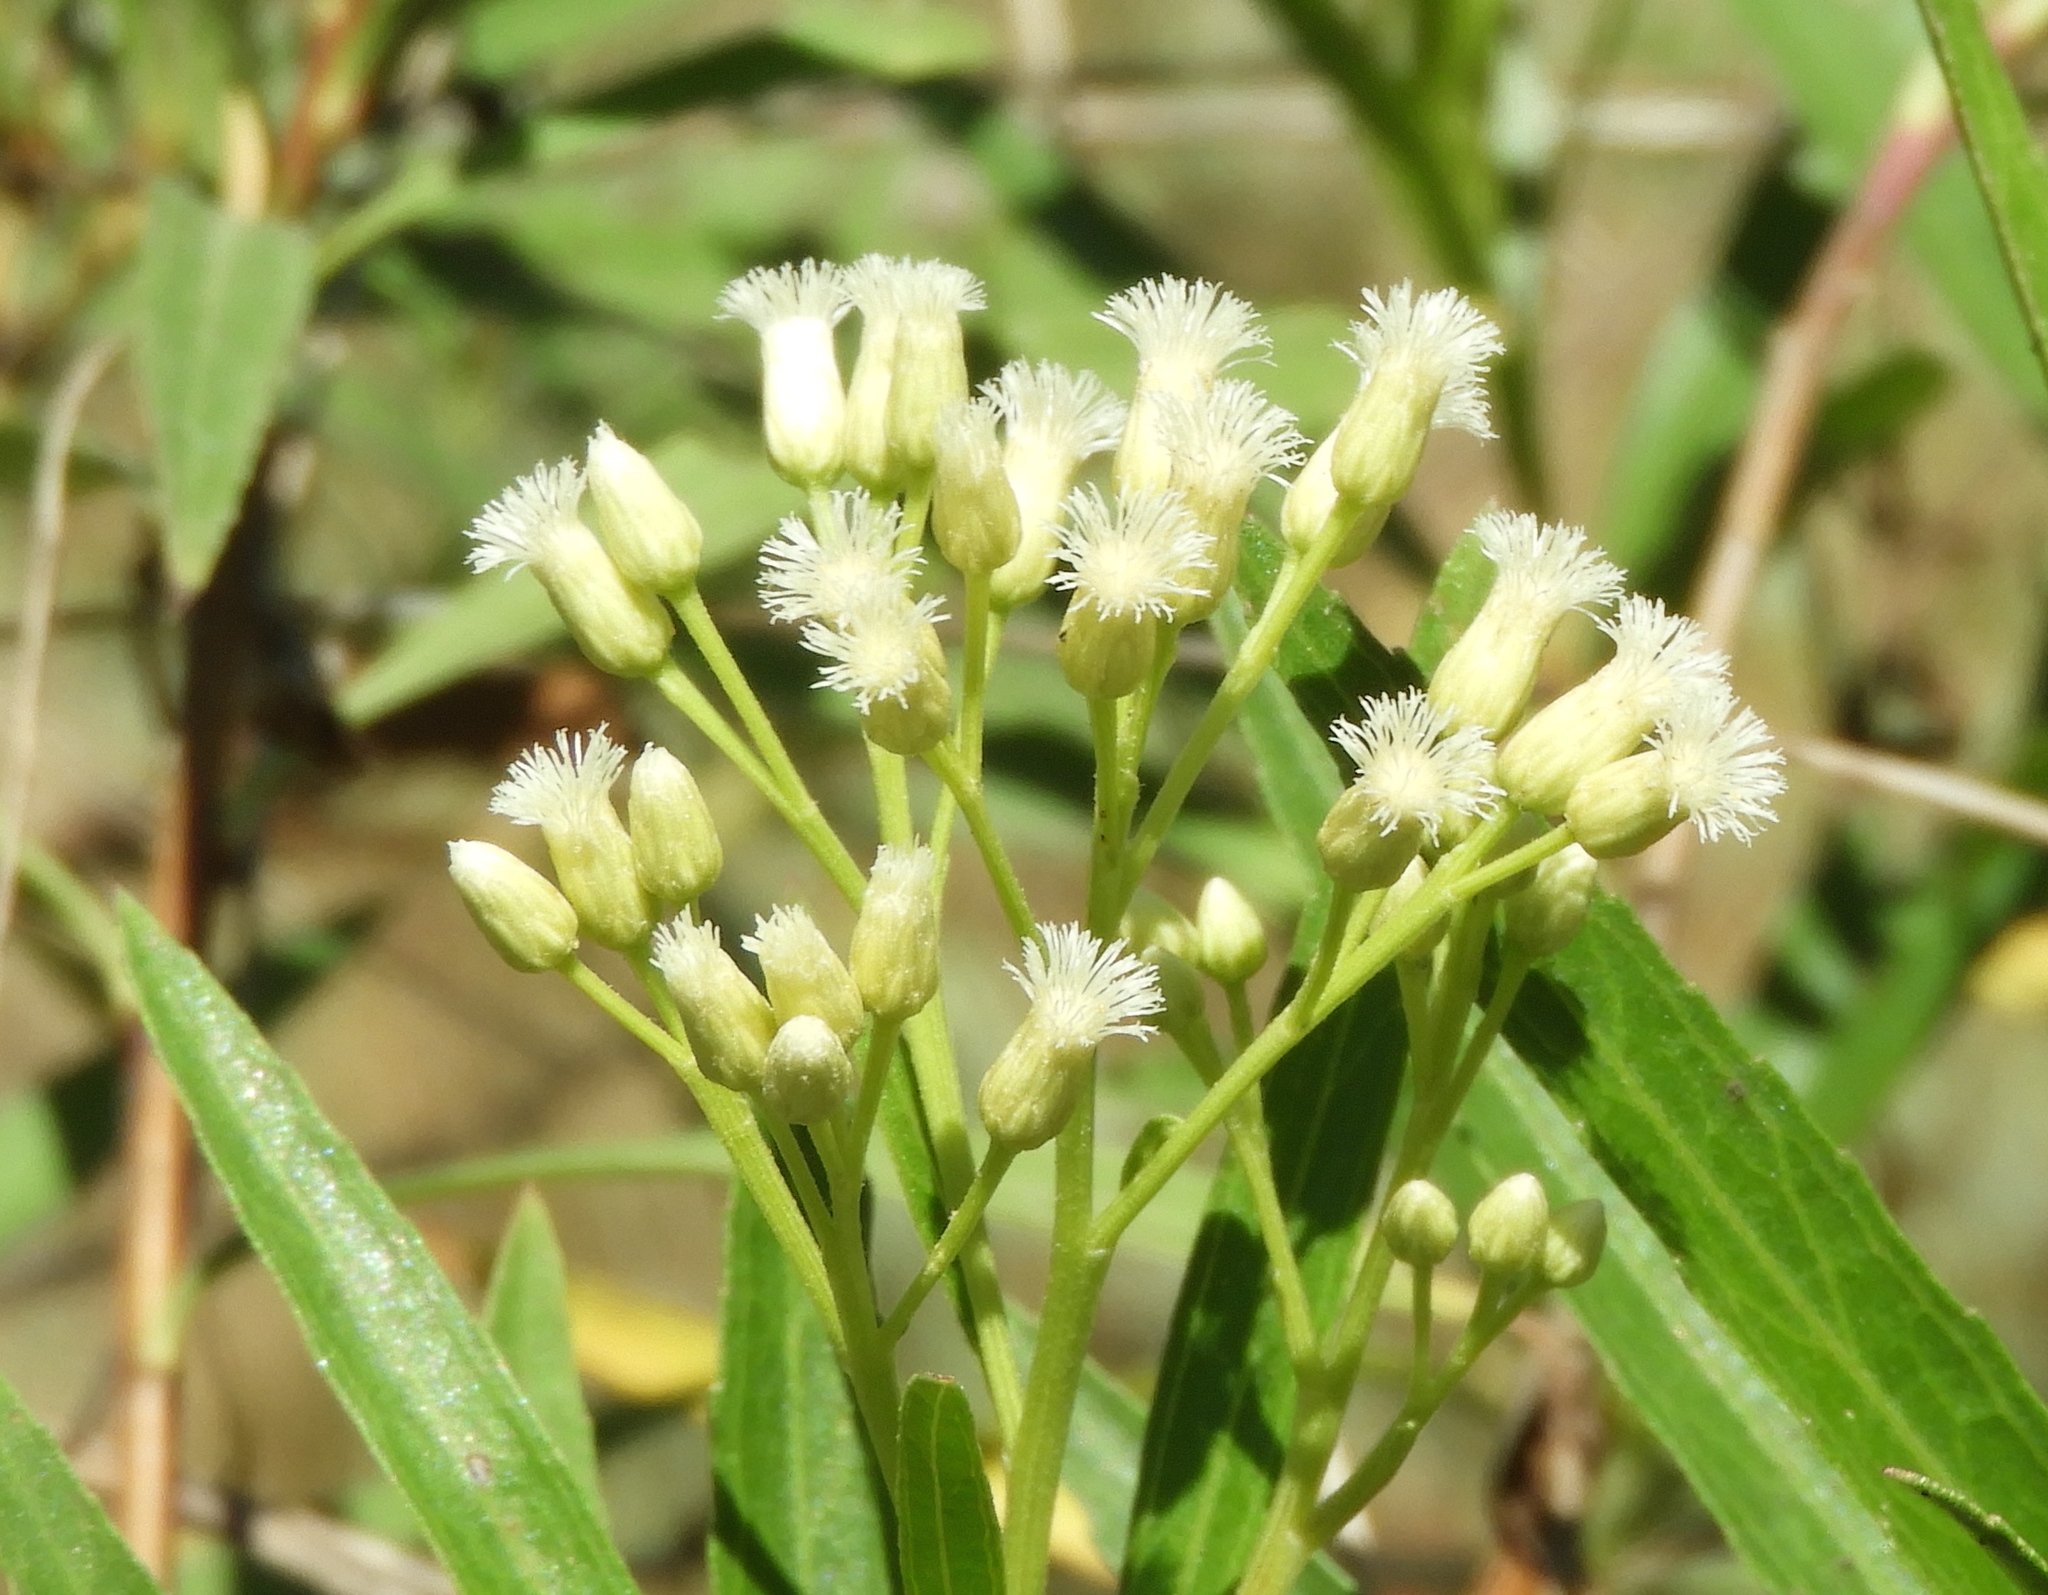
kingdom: Plantae
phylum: Tracheophyta
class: Magnoliopsida
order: Asterales
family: Asteraceae
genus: Baccharis
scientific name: Baccharis salicifolia
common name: Sticky baccharis
